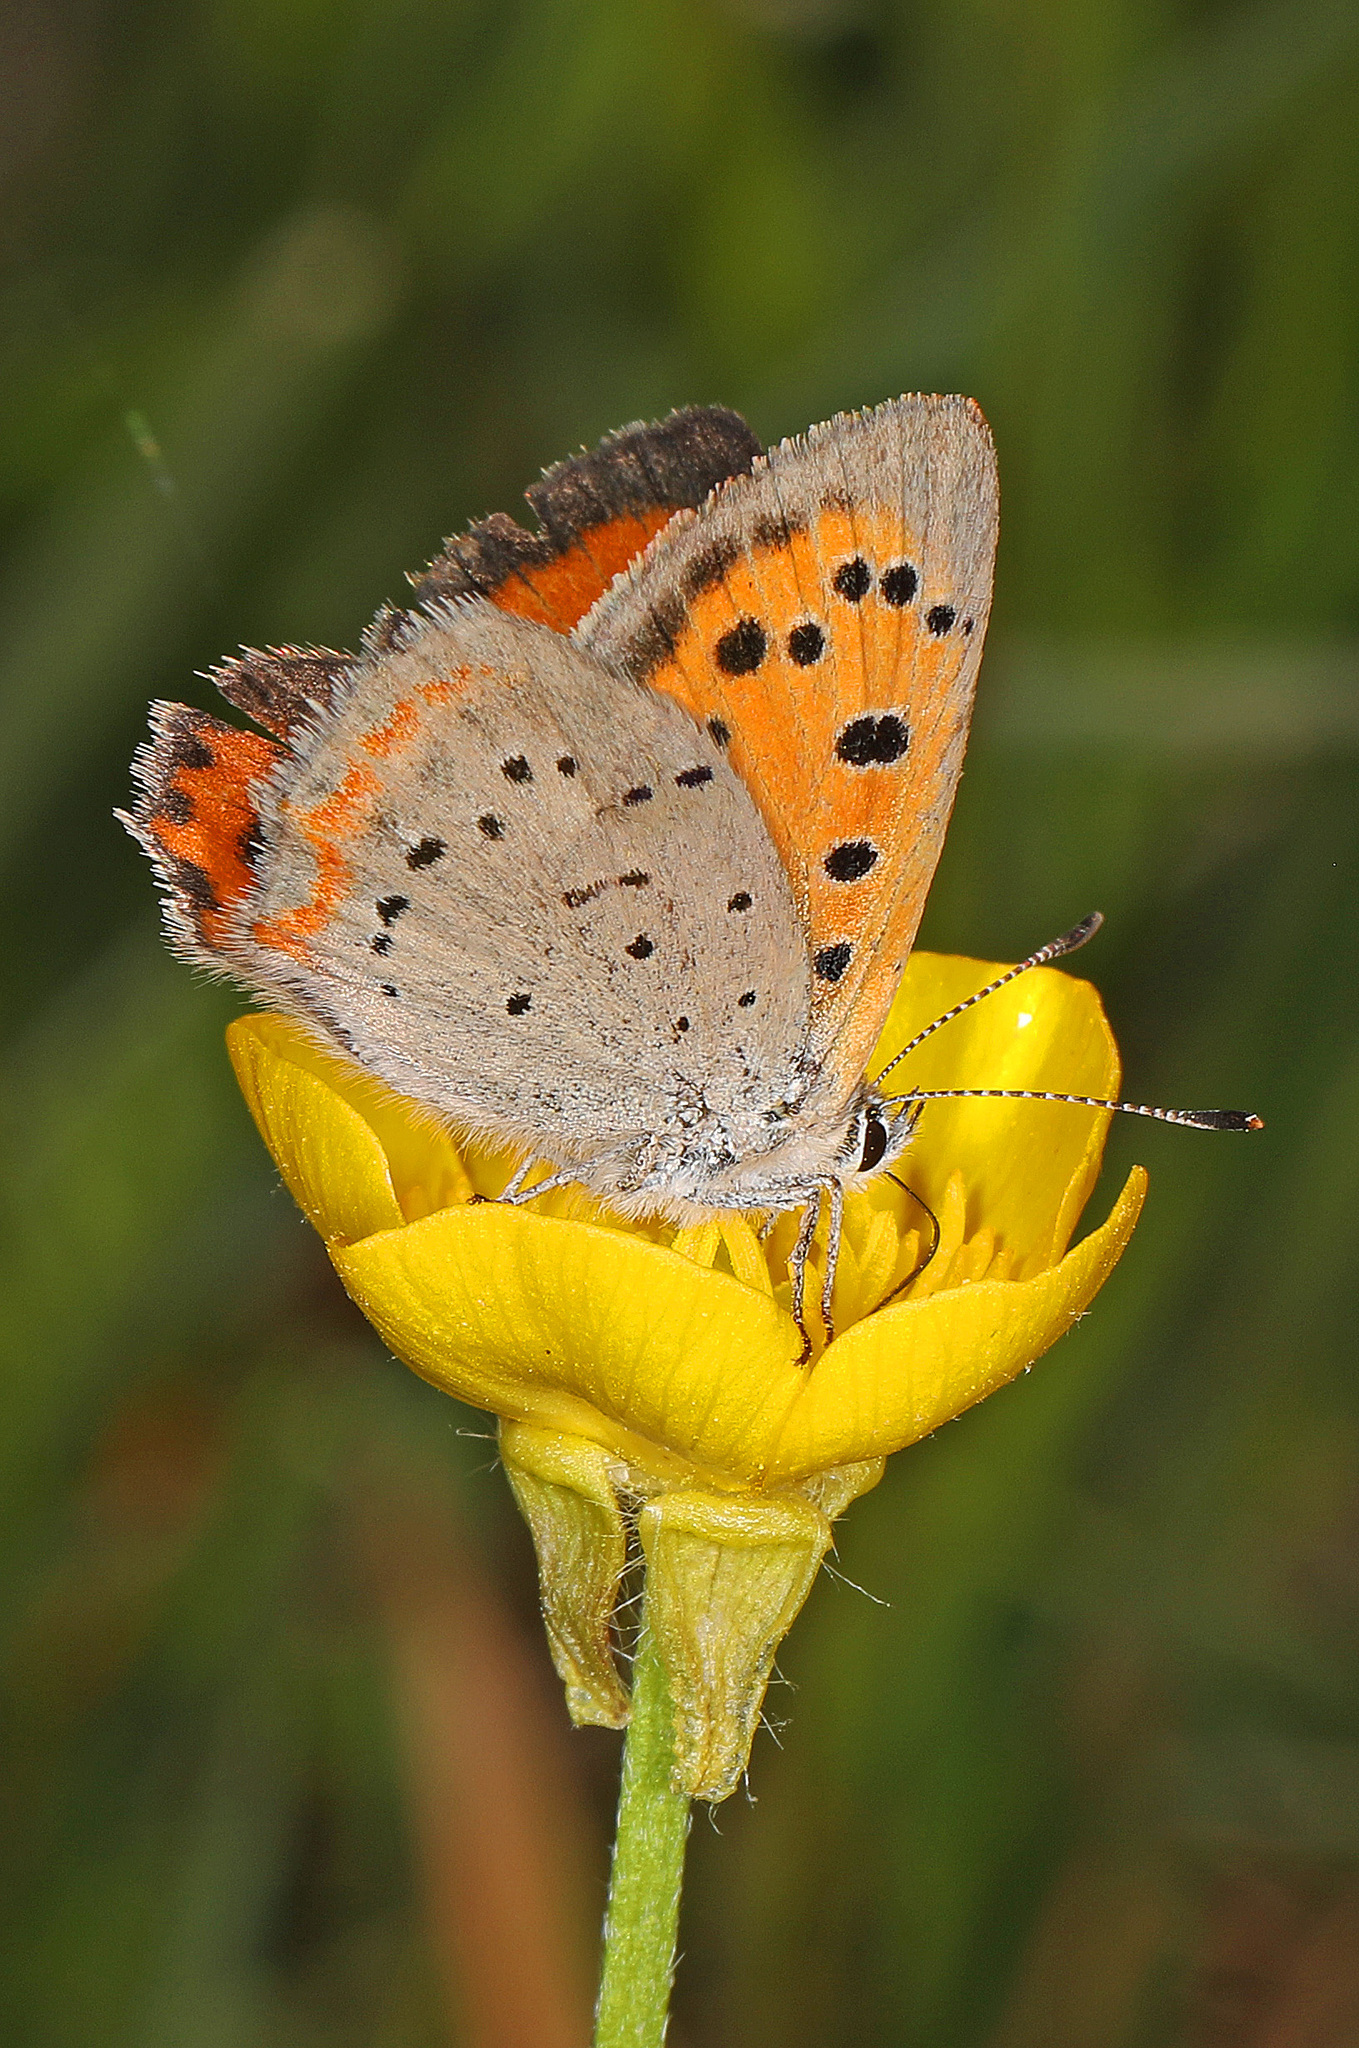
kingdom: Animalia
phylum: Arthropoda
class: Insecta
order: Lepidoptera
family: Lycaenidae
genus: Lycaena
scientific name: Lycaena hypophlaeas
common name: American copper
